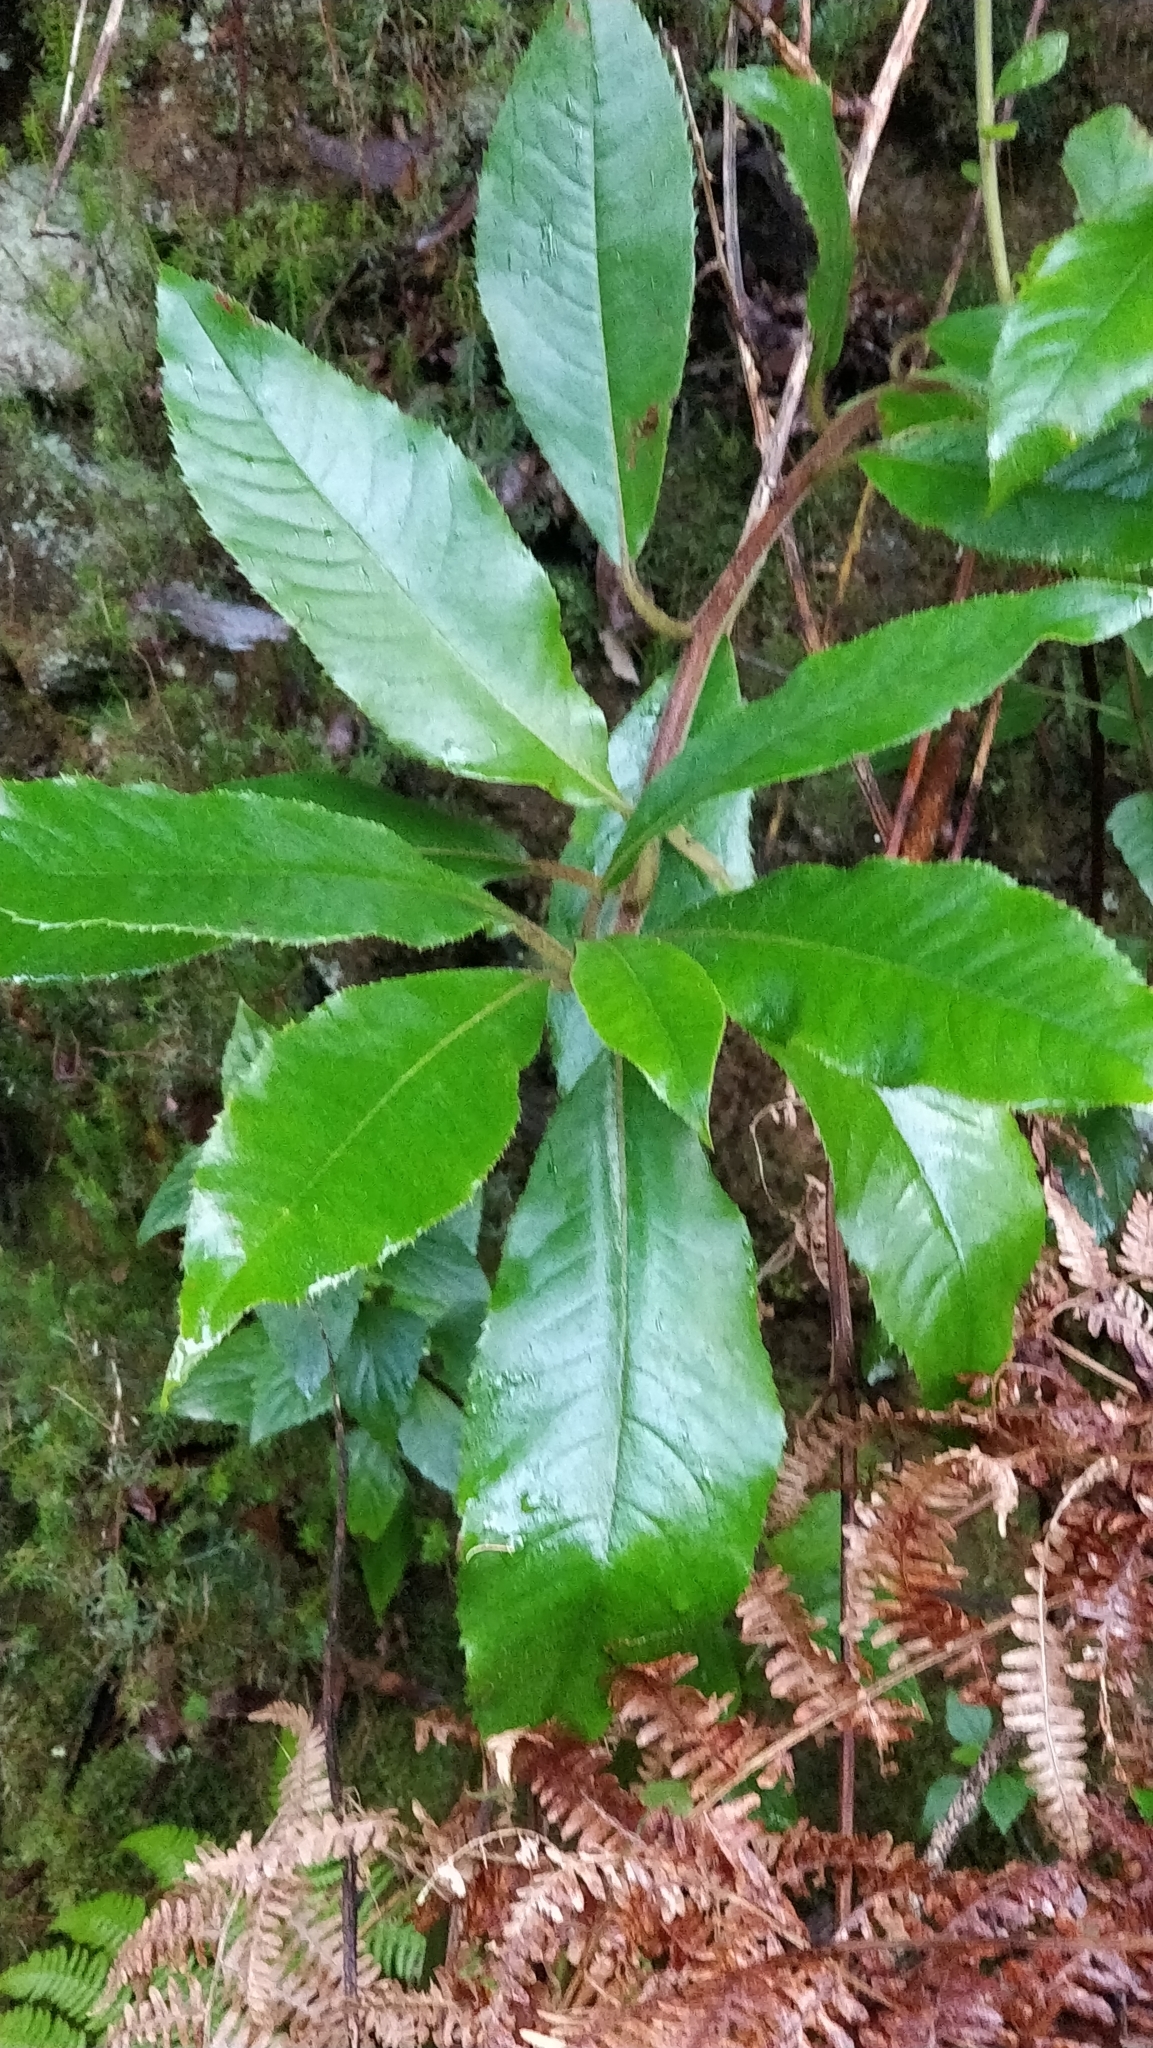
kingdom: Plantae
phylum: Tracheophyta
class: Magnoliopsida
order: Ericales
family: Clethraceae
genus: Clethra
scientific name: Clethra arborea
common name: Lily-of-the-valley-tree
